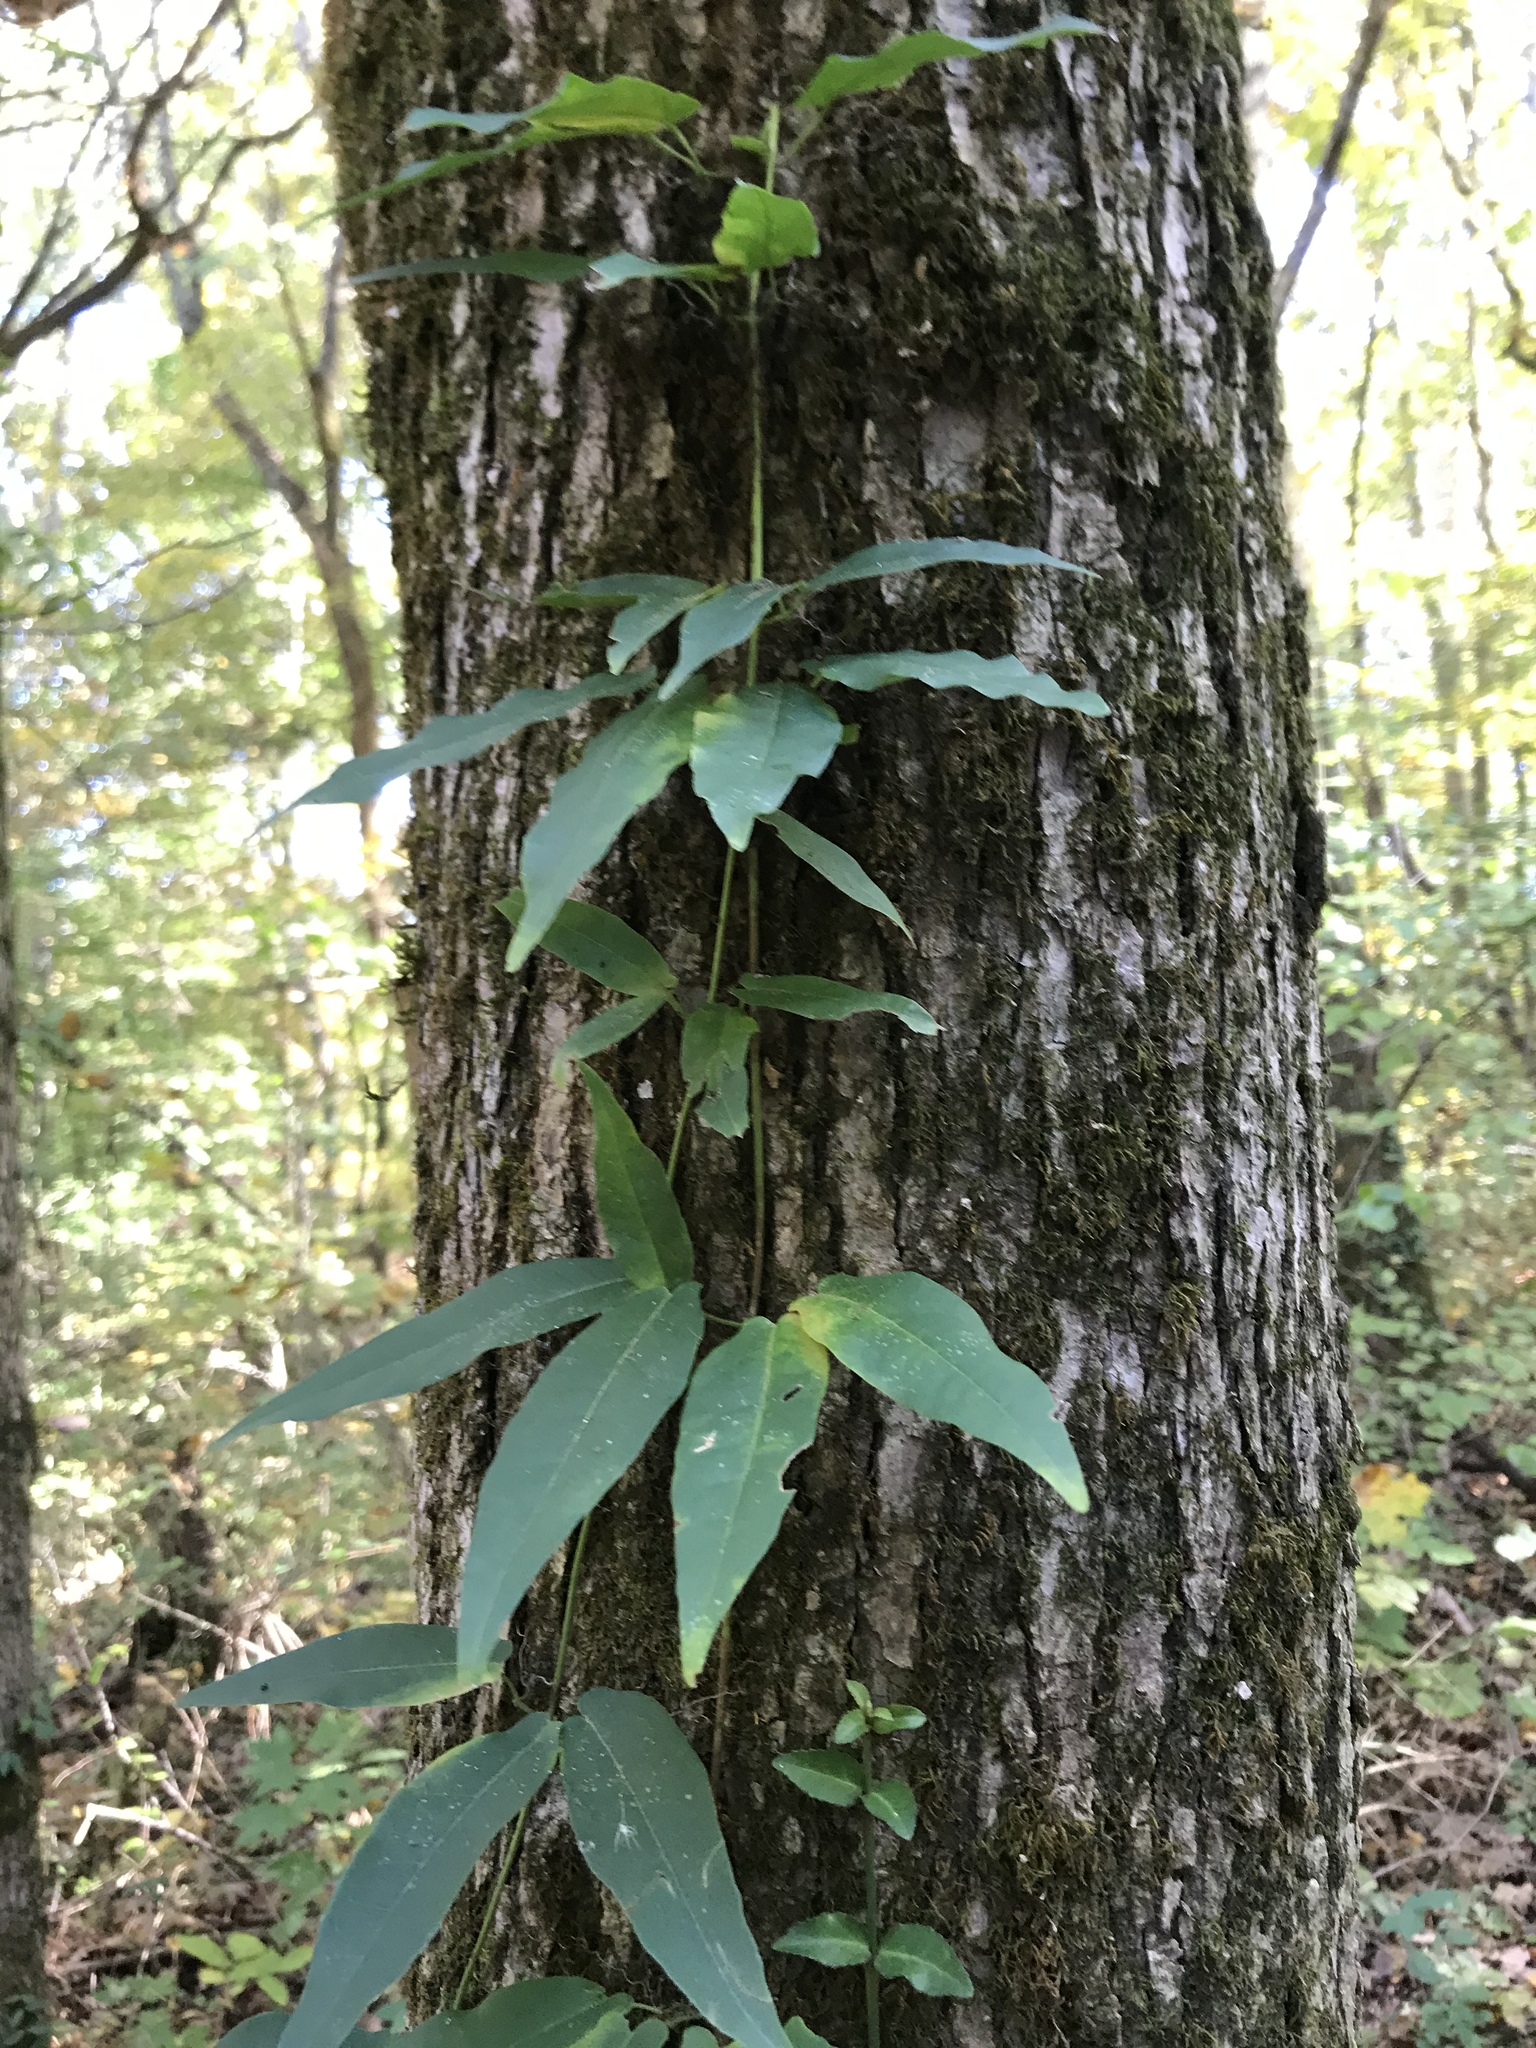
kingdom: Plantae
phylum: Tracheophyta
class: Magnoliopsida
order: Lamiales
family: Bignoniaceae
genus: Bignonia
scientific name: Bignonia capreolata
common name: Crossvine
